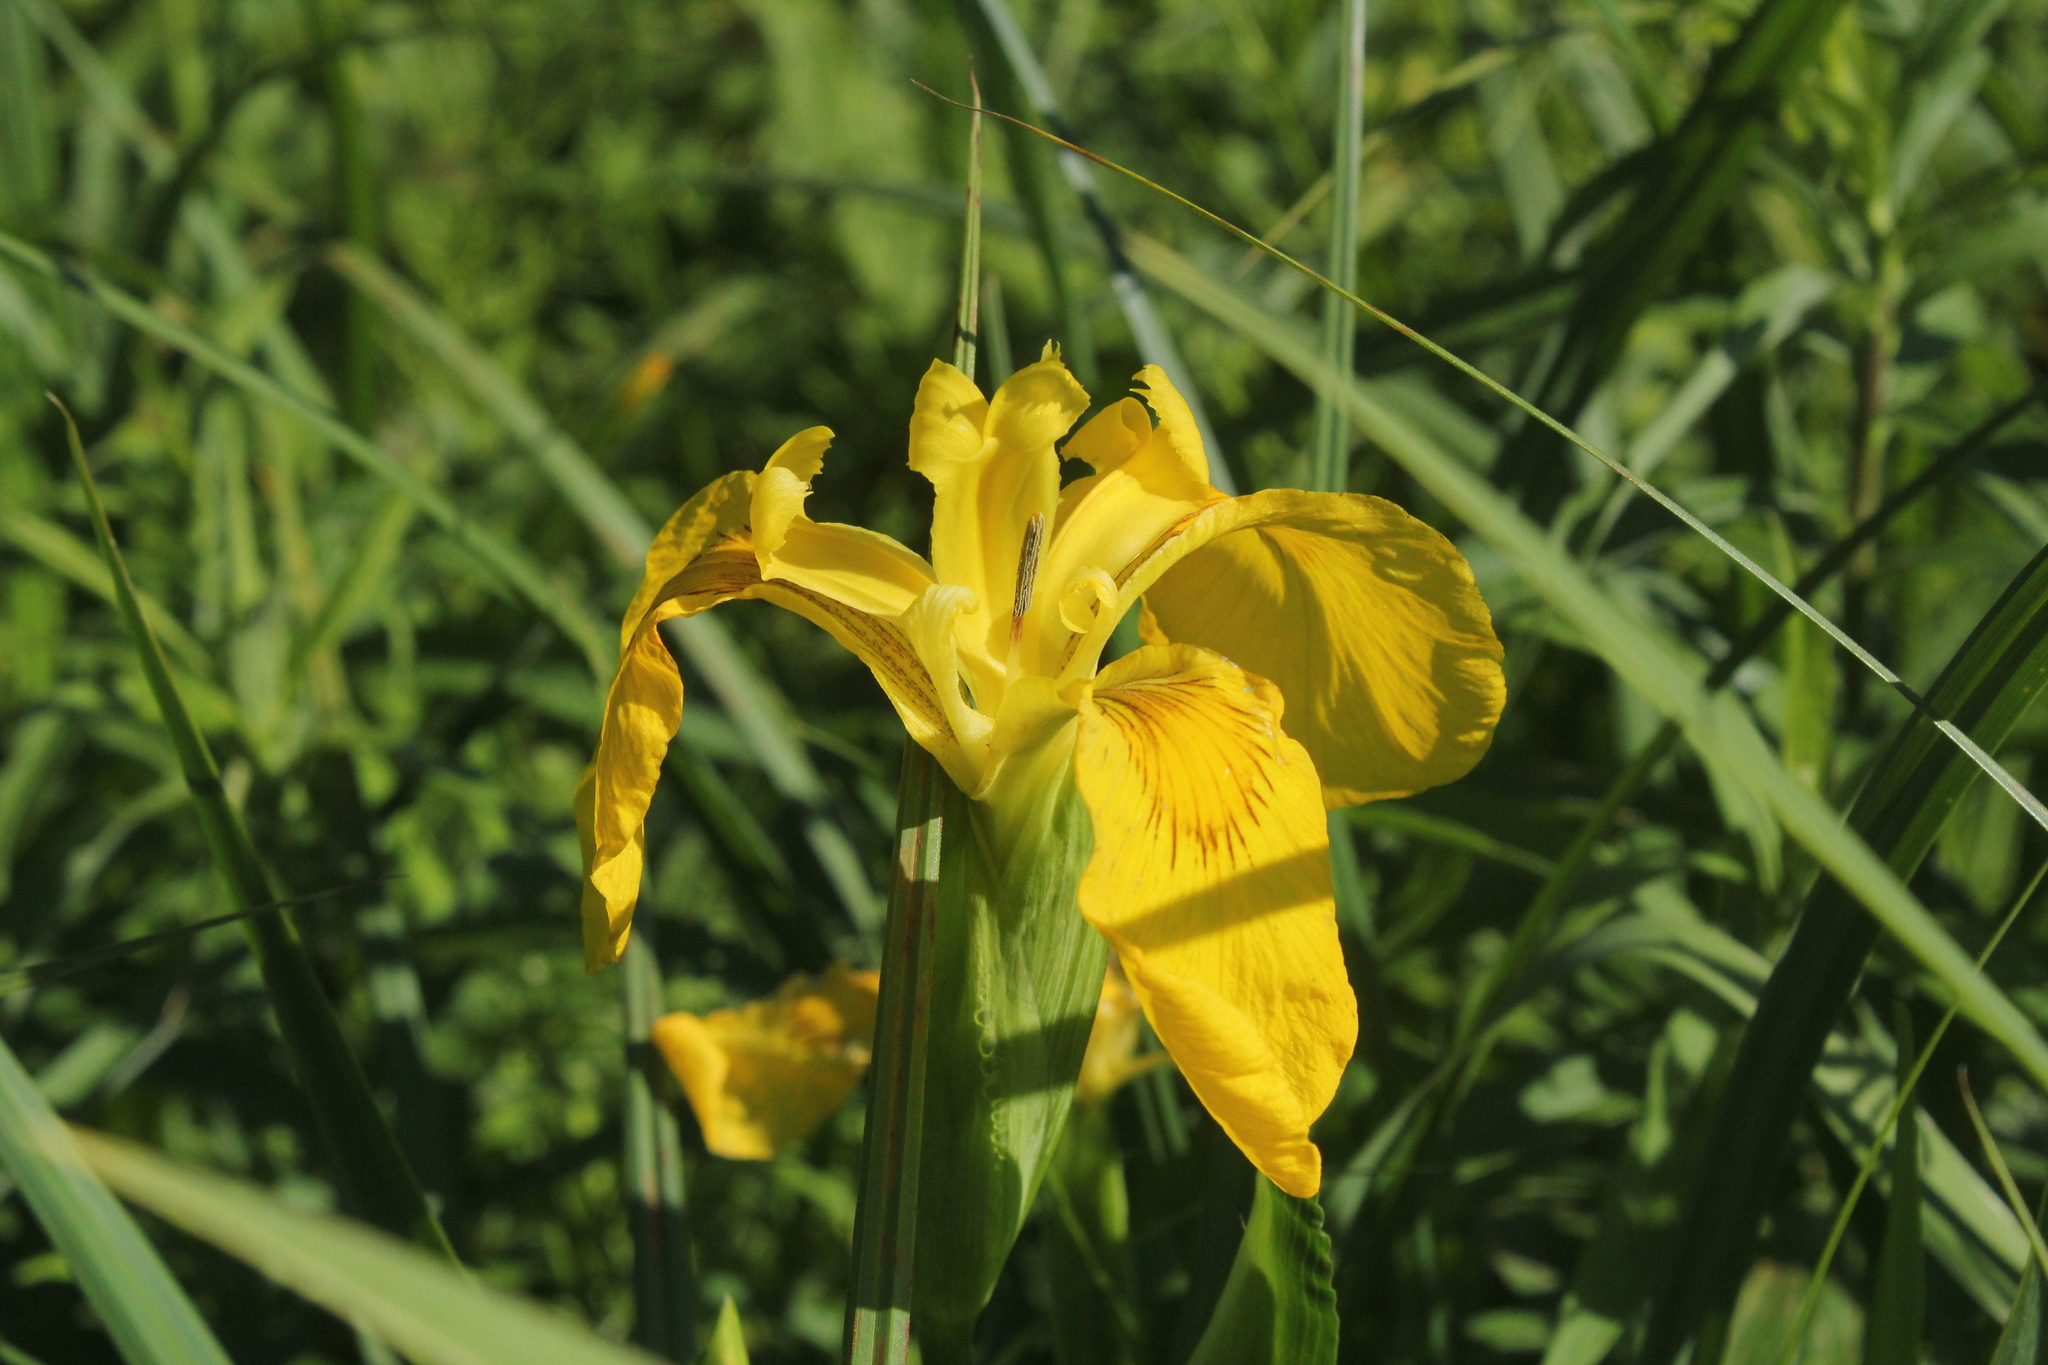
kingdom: Plantae
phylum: Tracheophyta
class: Liliopsida
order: Asparagales
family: Iridaceae
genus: Iris
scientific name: Iris pseudacorus
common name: Yellow flag
